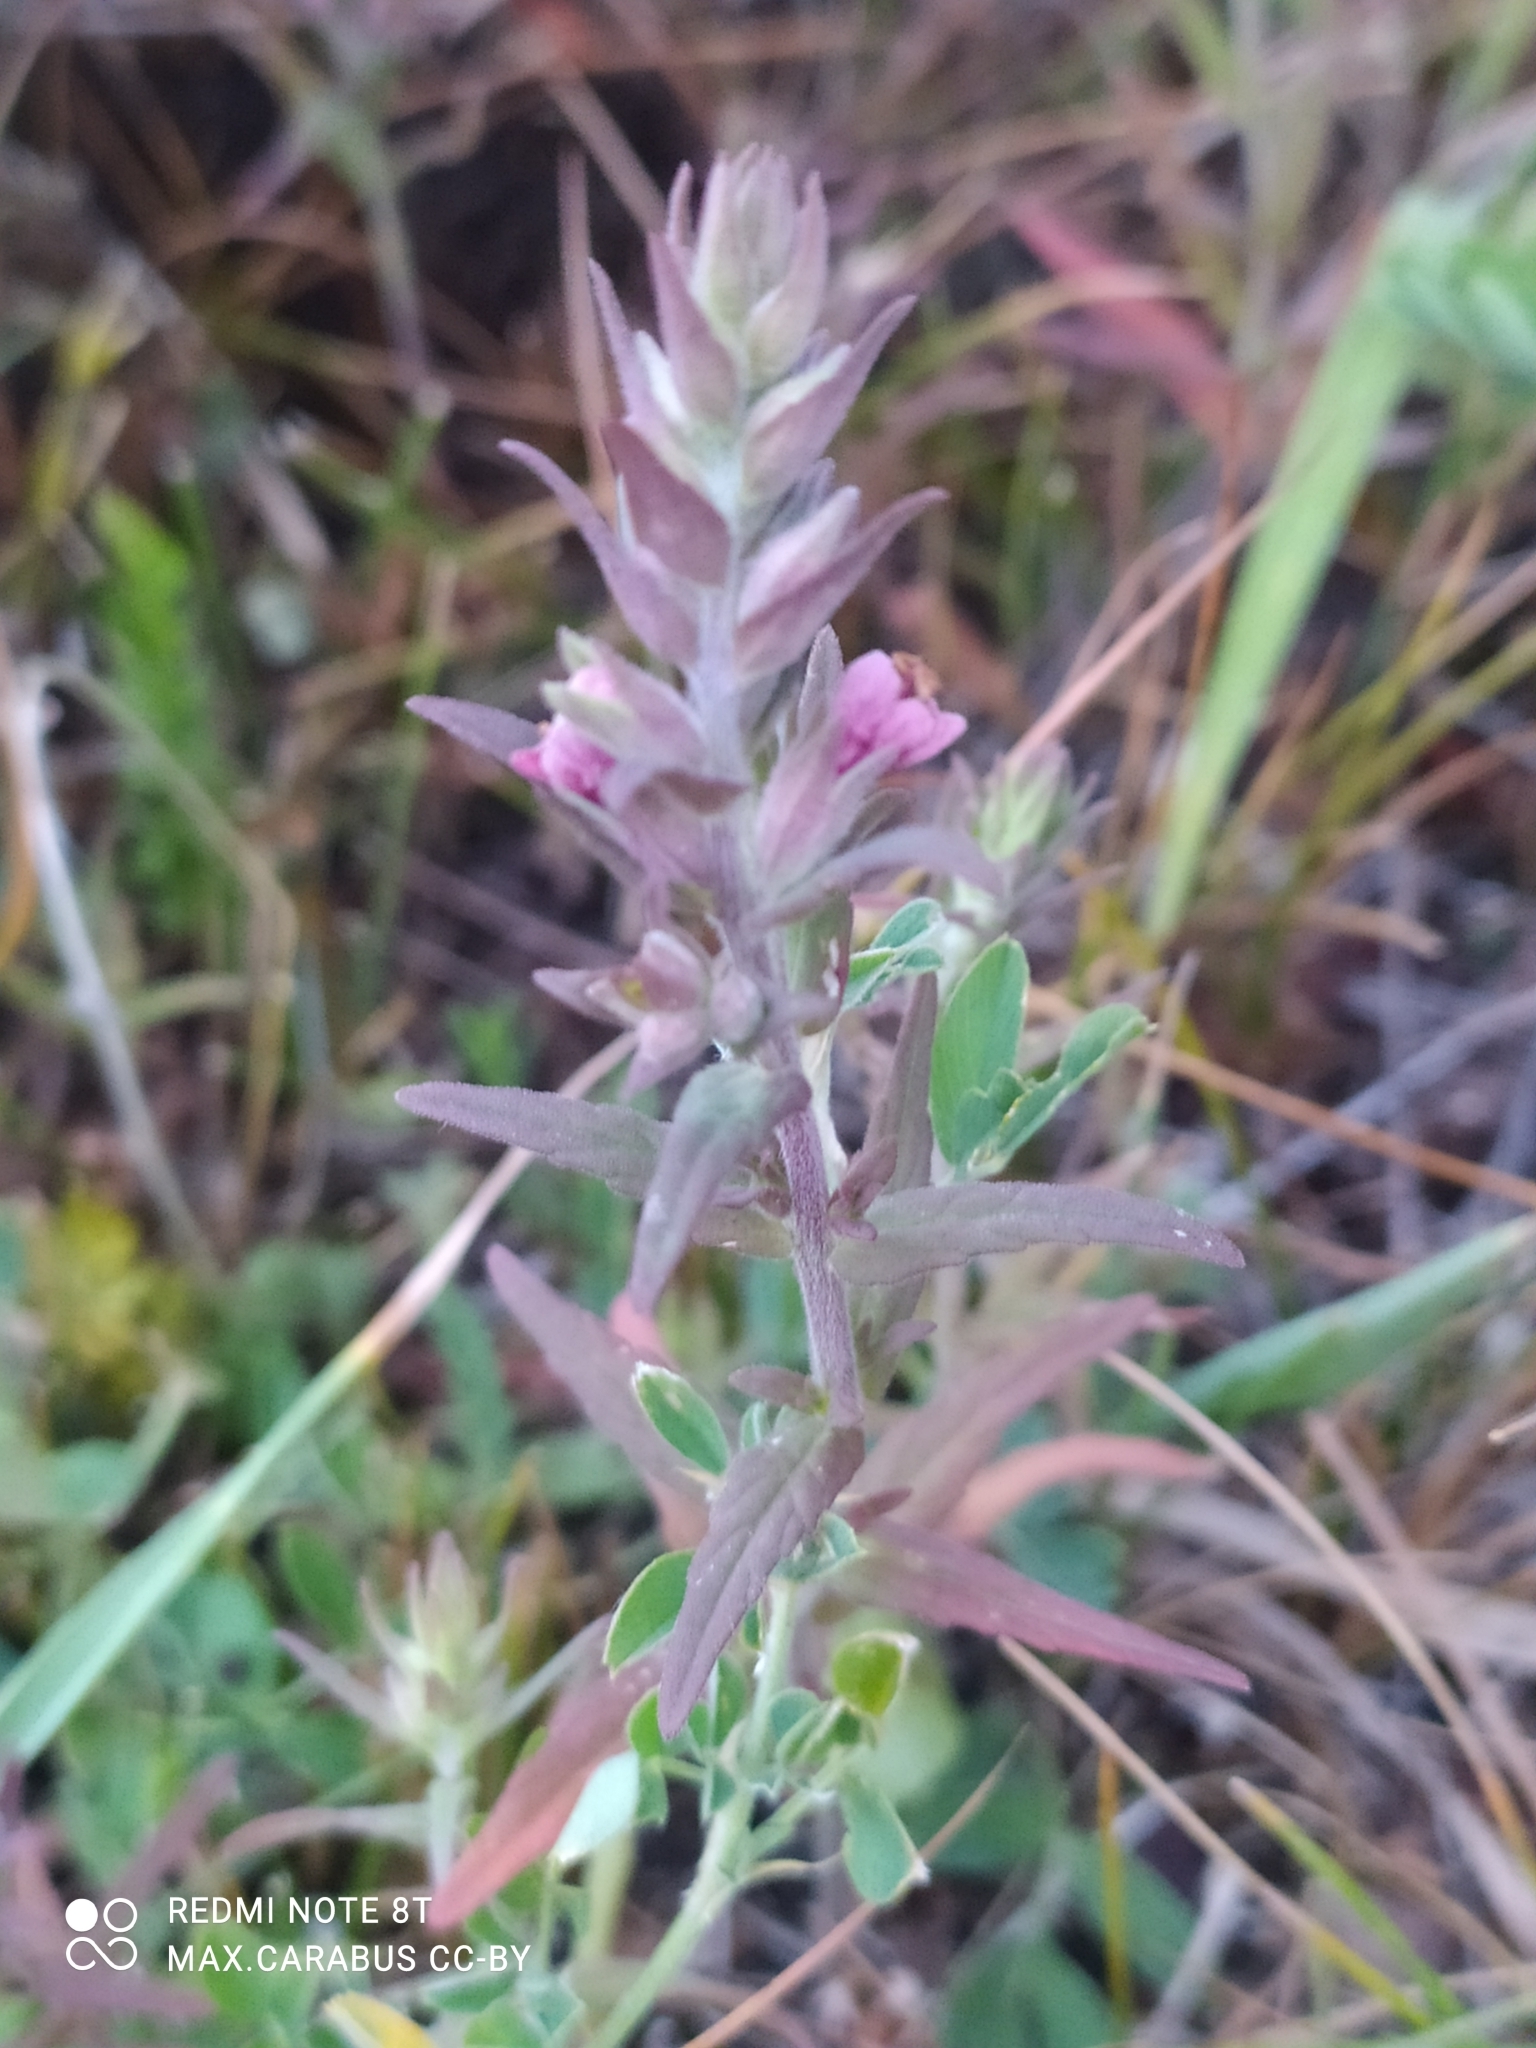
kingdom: Plantae
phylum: Tracheophyta
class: Magnoliopsida
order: Lamiales
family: Orobanchaceae
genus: Odontites
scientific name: Odontites vulgaris
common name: Broomrape
